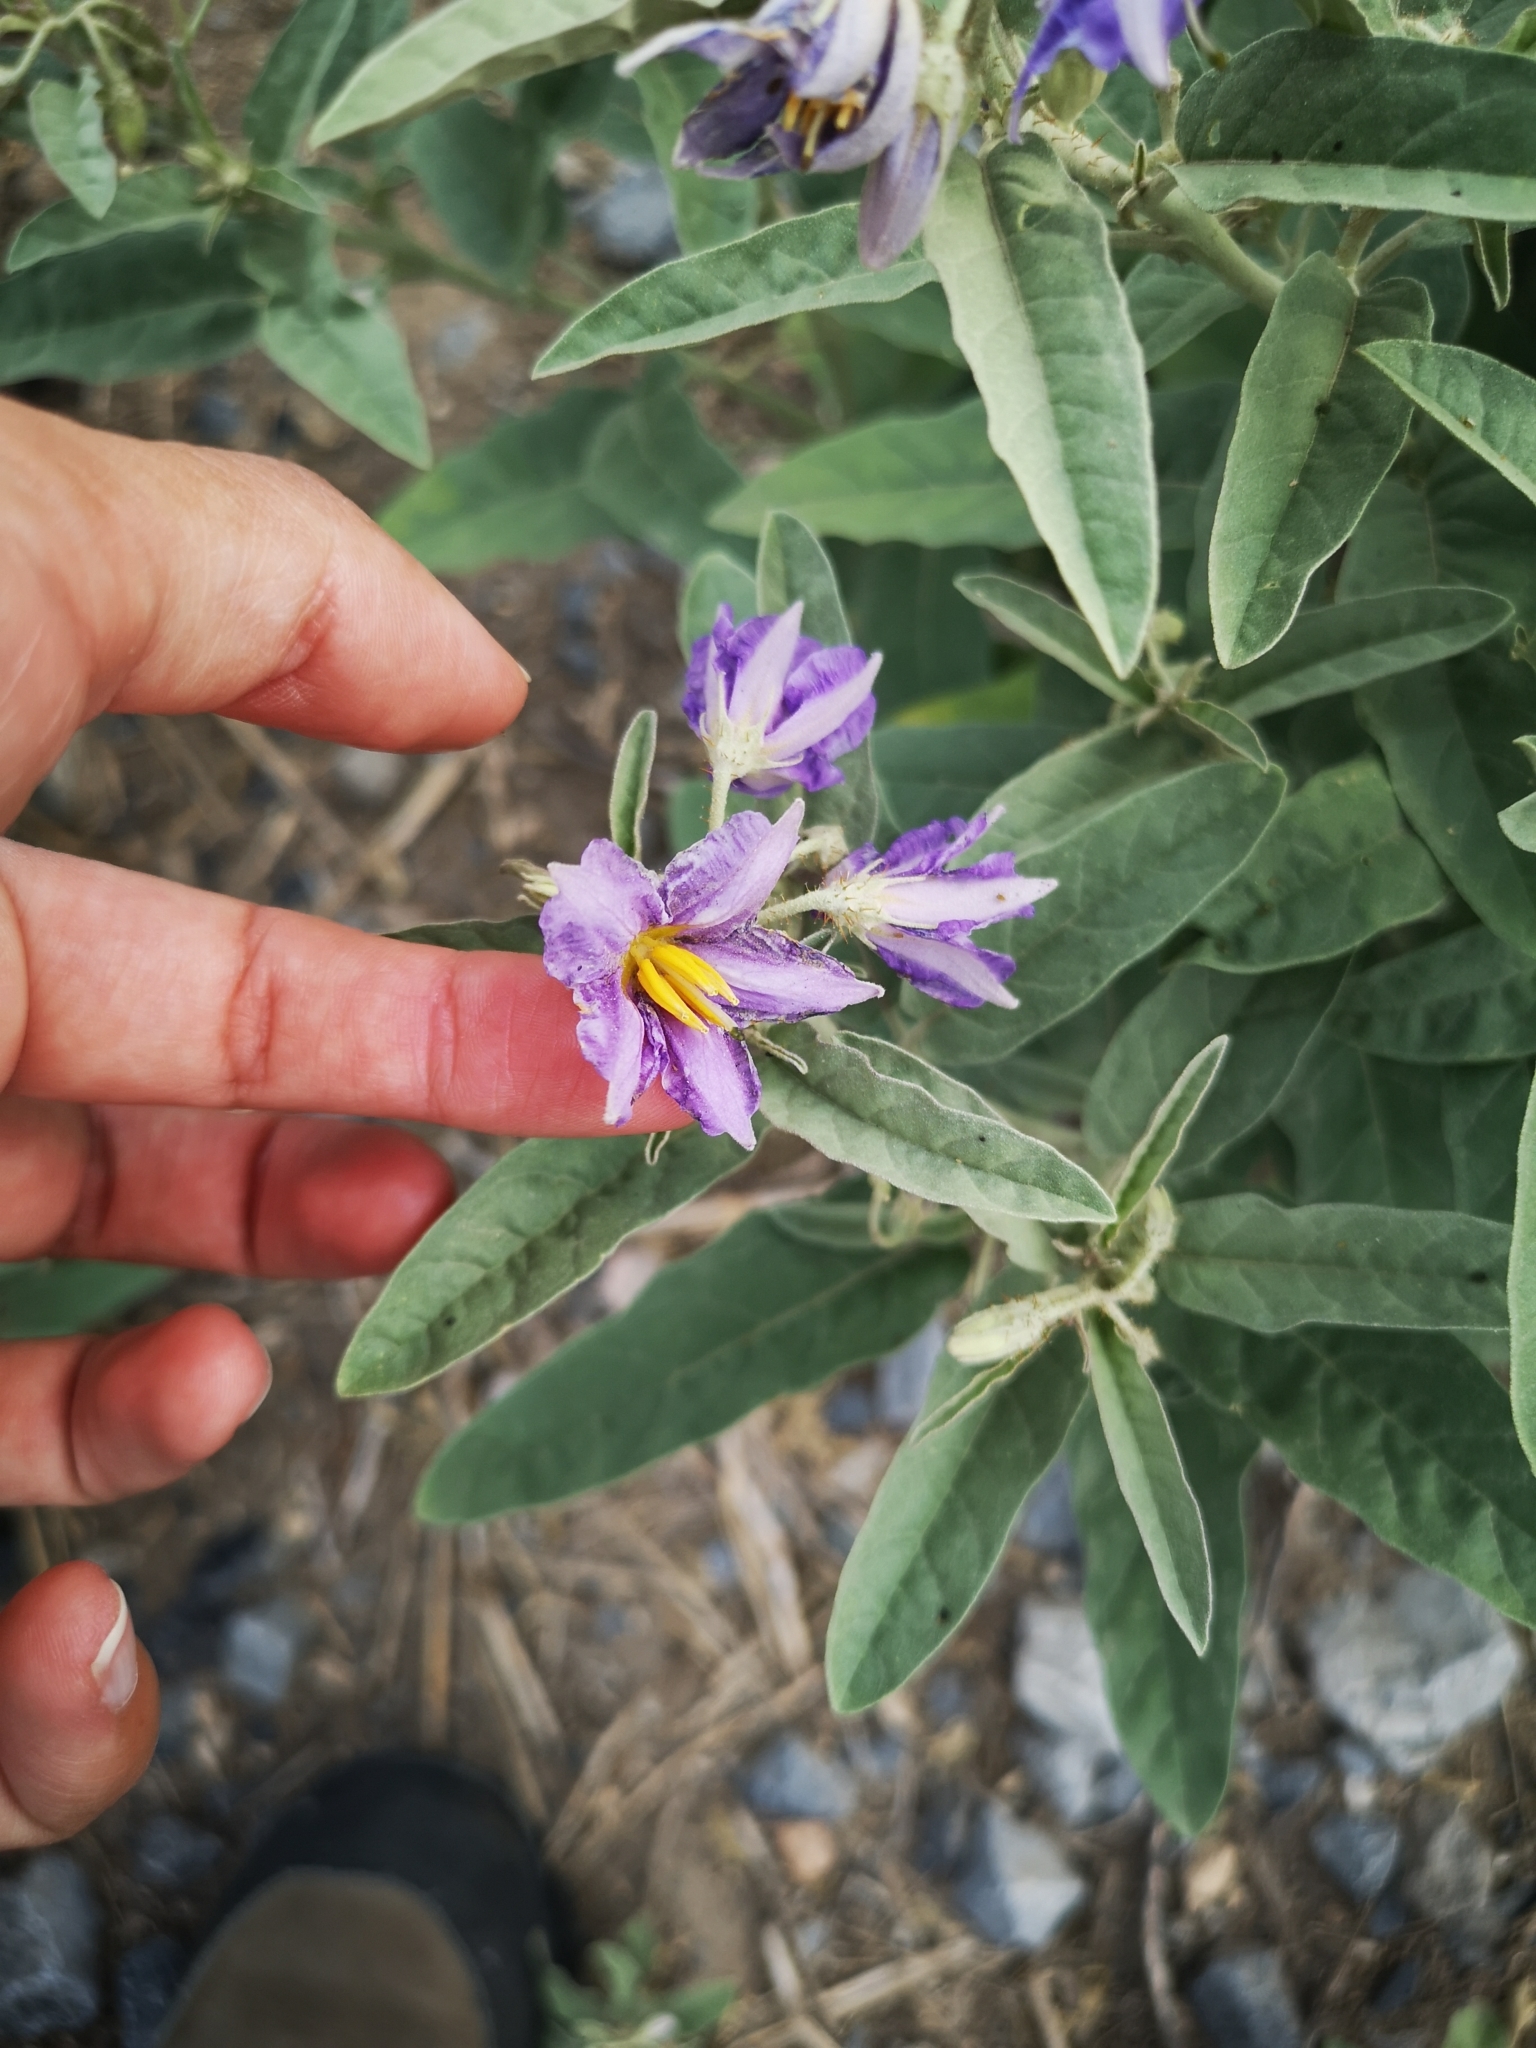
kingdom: Plantae
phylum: Tracheophyta
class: Magnoliopsida
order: Solanales
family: Solanaceae
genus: Solanum
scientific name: Solanum elaeagnifolium
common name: Silverleaf nightshade
